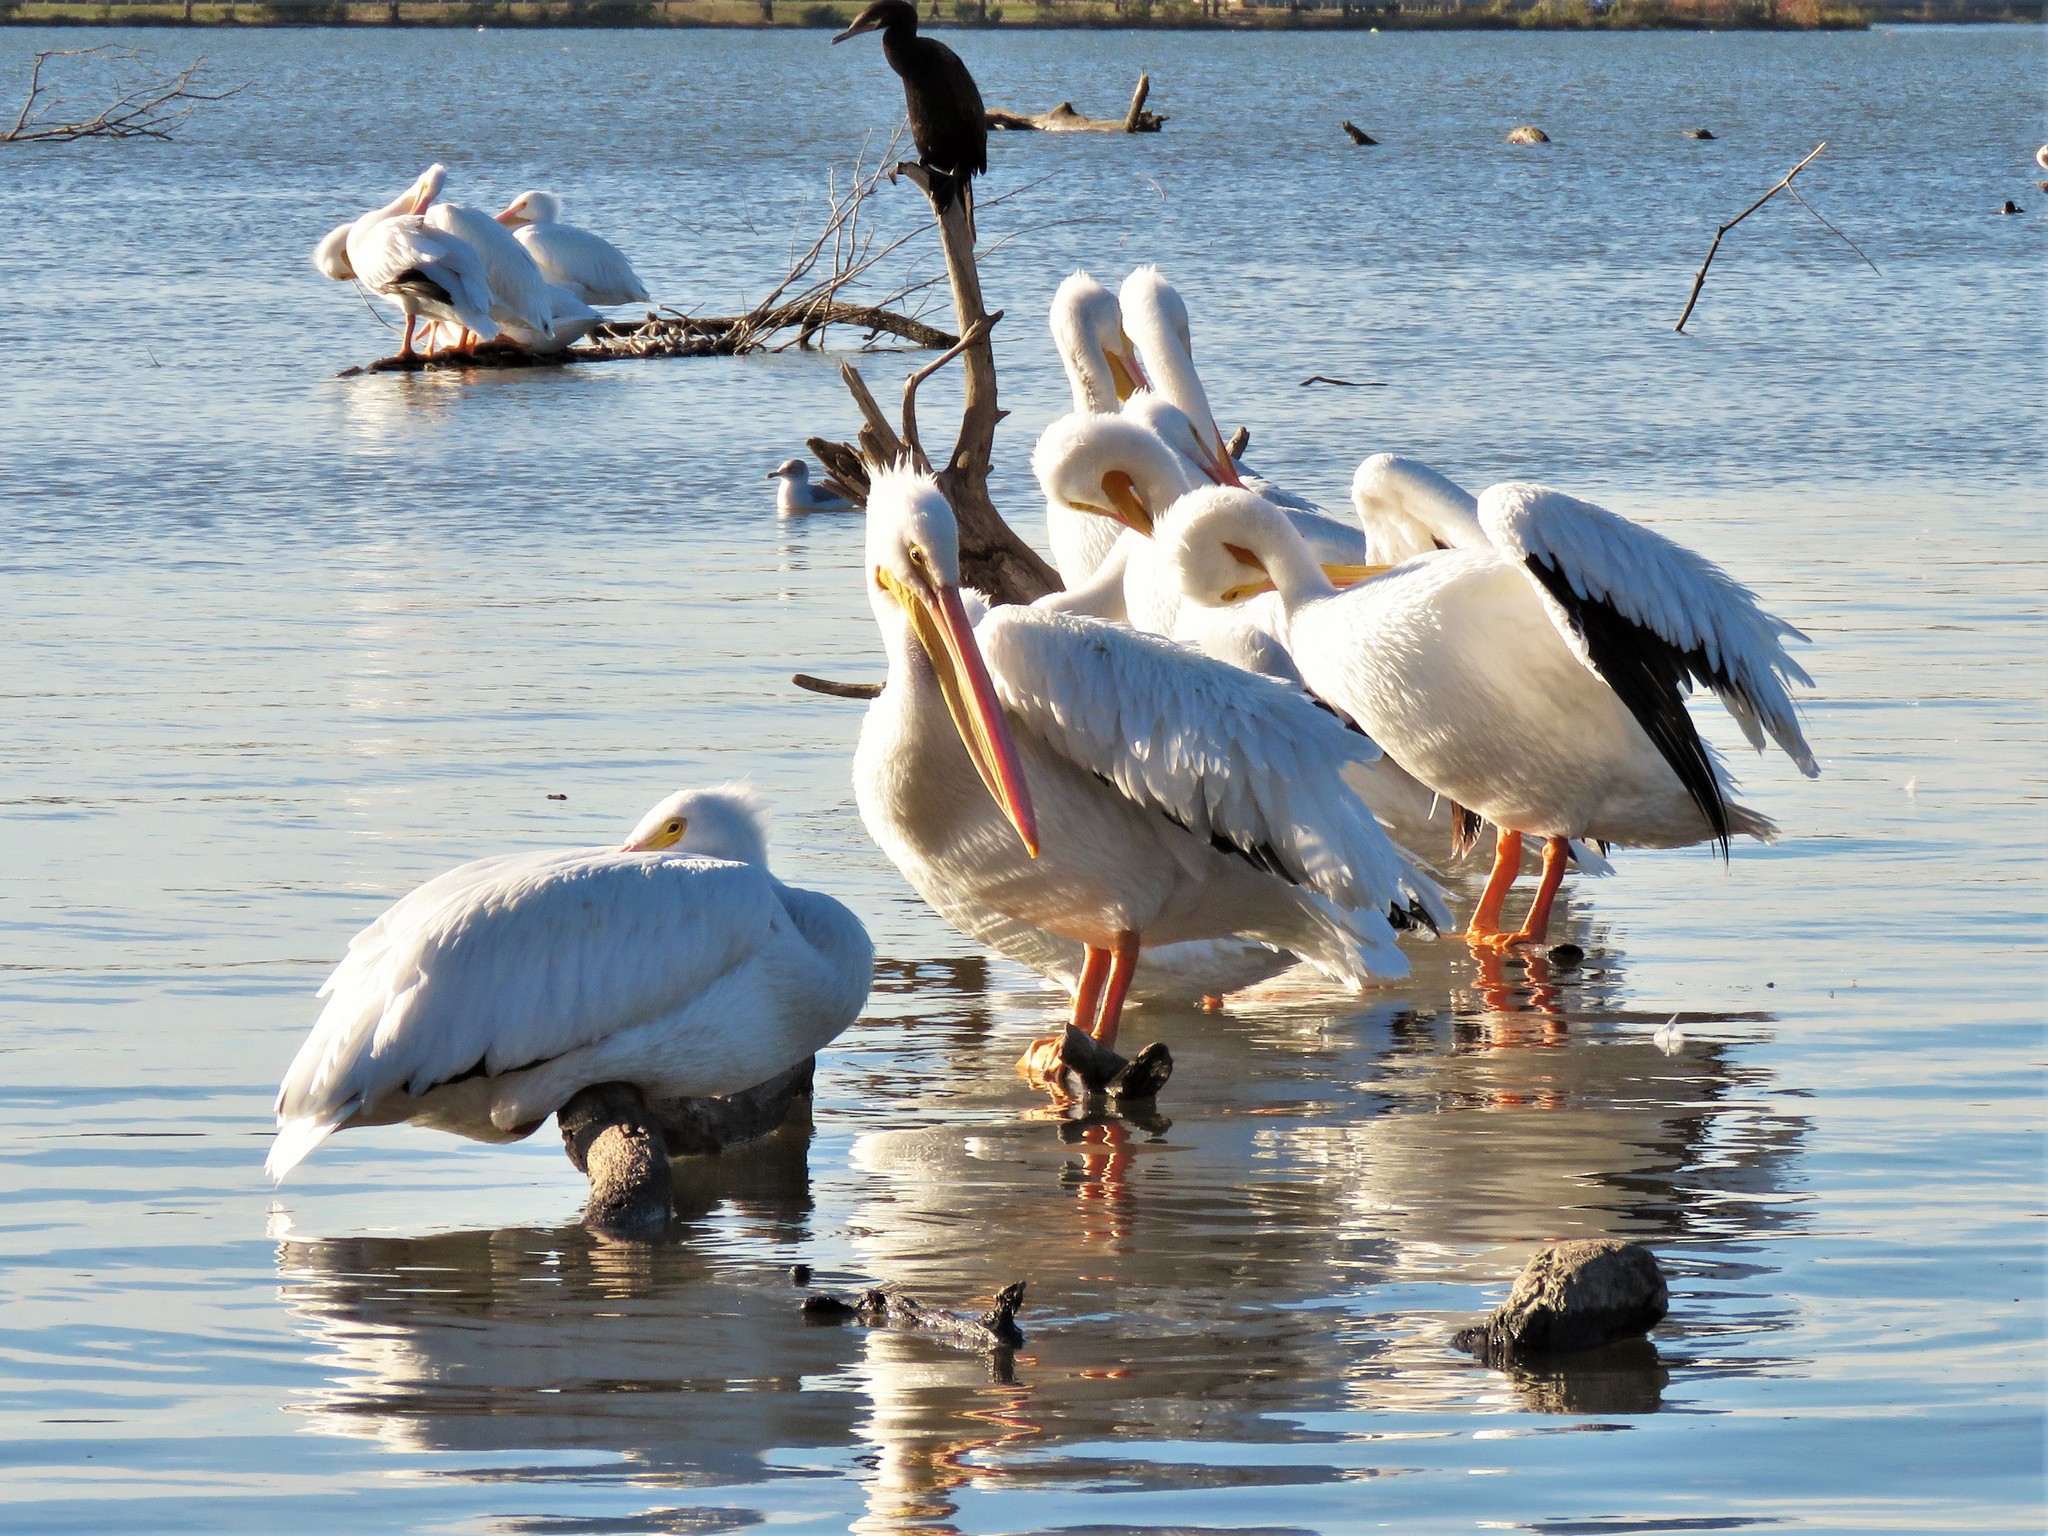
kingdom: Animalia
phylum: Chordata
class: Aves
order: Pelecaniformes
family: Pelecanidae
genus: Pelecanus
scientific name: Pelecanus erythrorhynchos
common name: American white pelican
